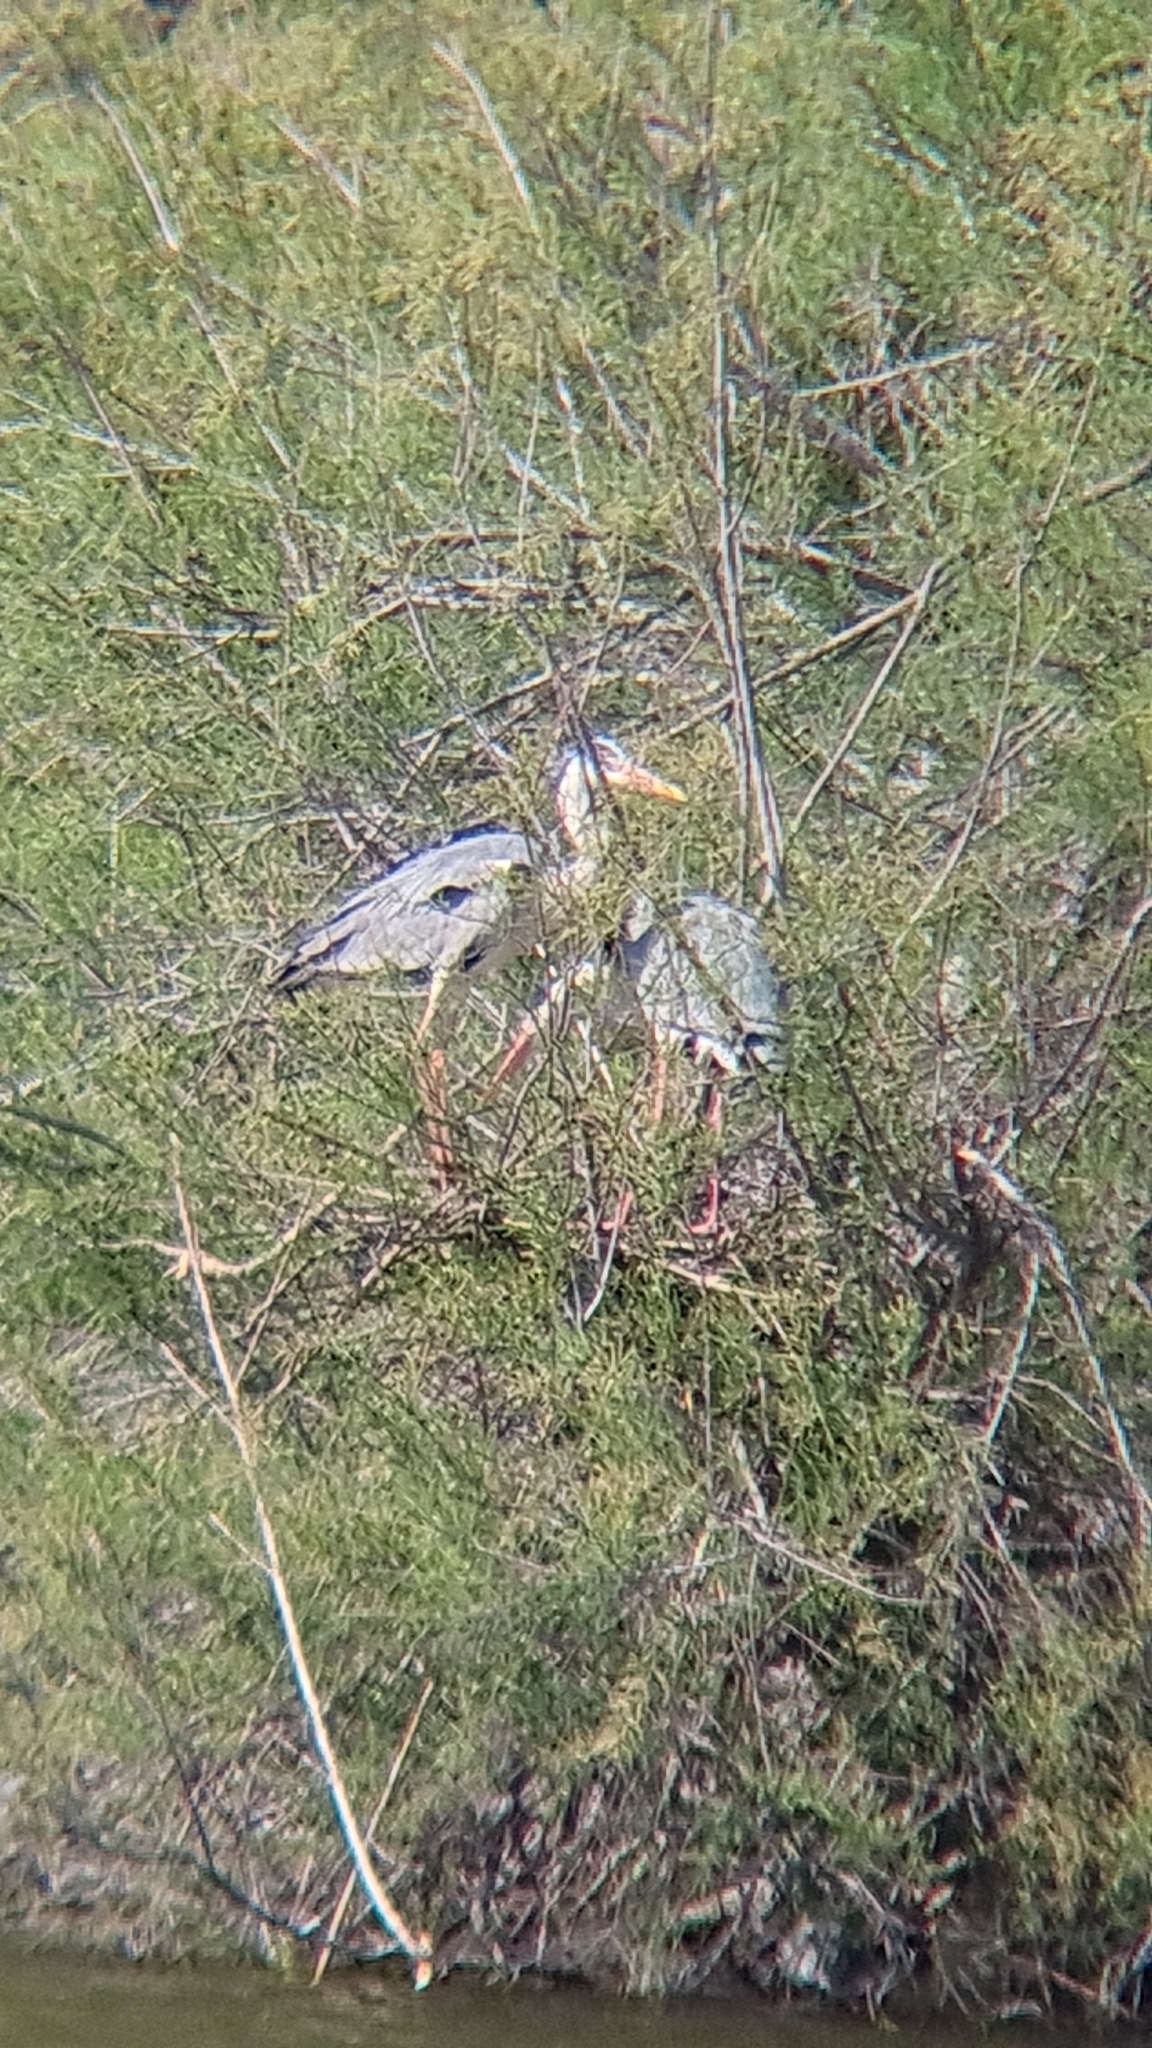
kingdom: Animalia
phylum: Chordata
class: Aves
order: Pelecaniformes
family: Ardeidae
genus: Ardea
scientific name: Ardea cinerea
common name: Grey heron
